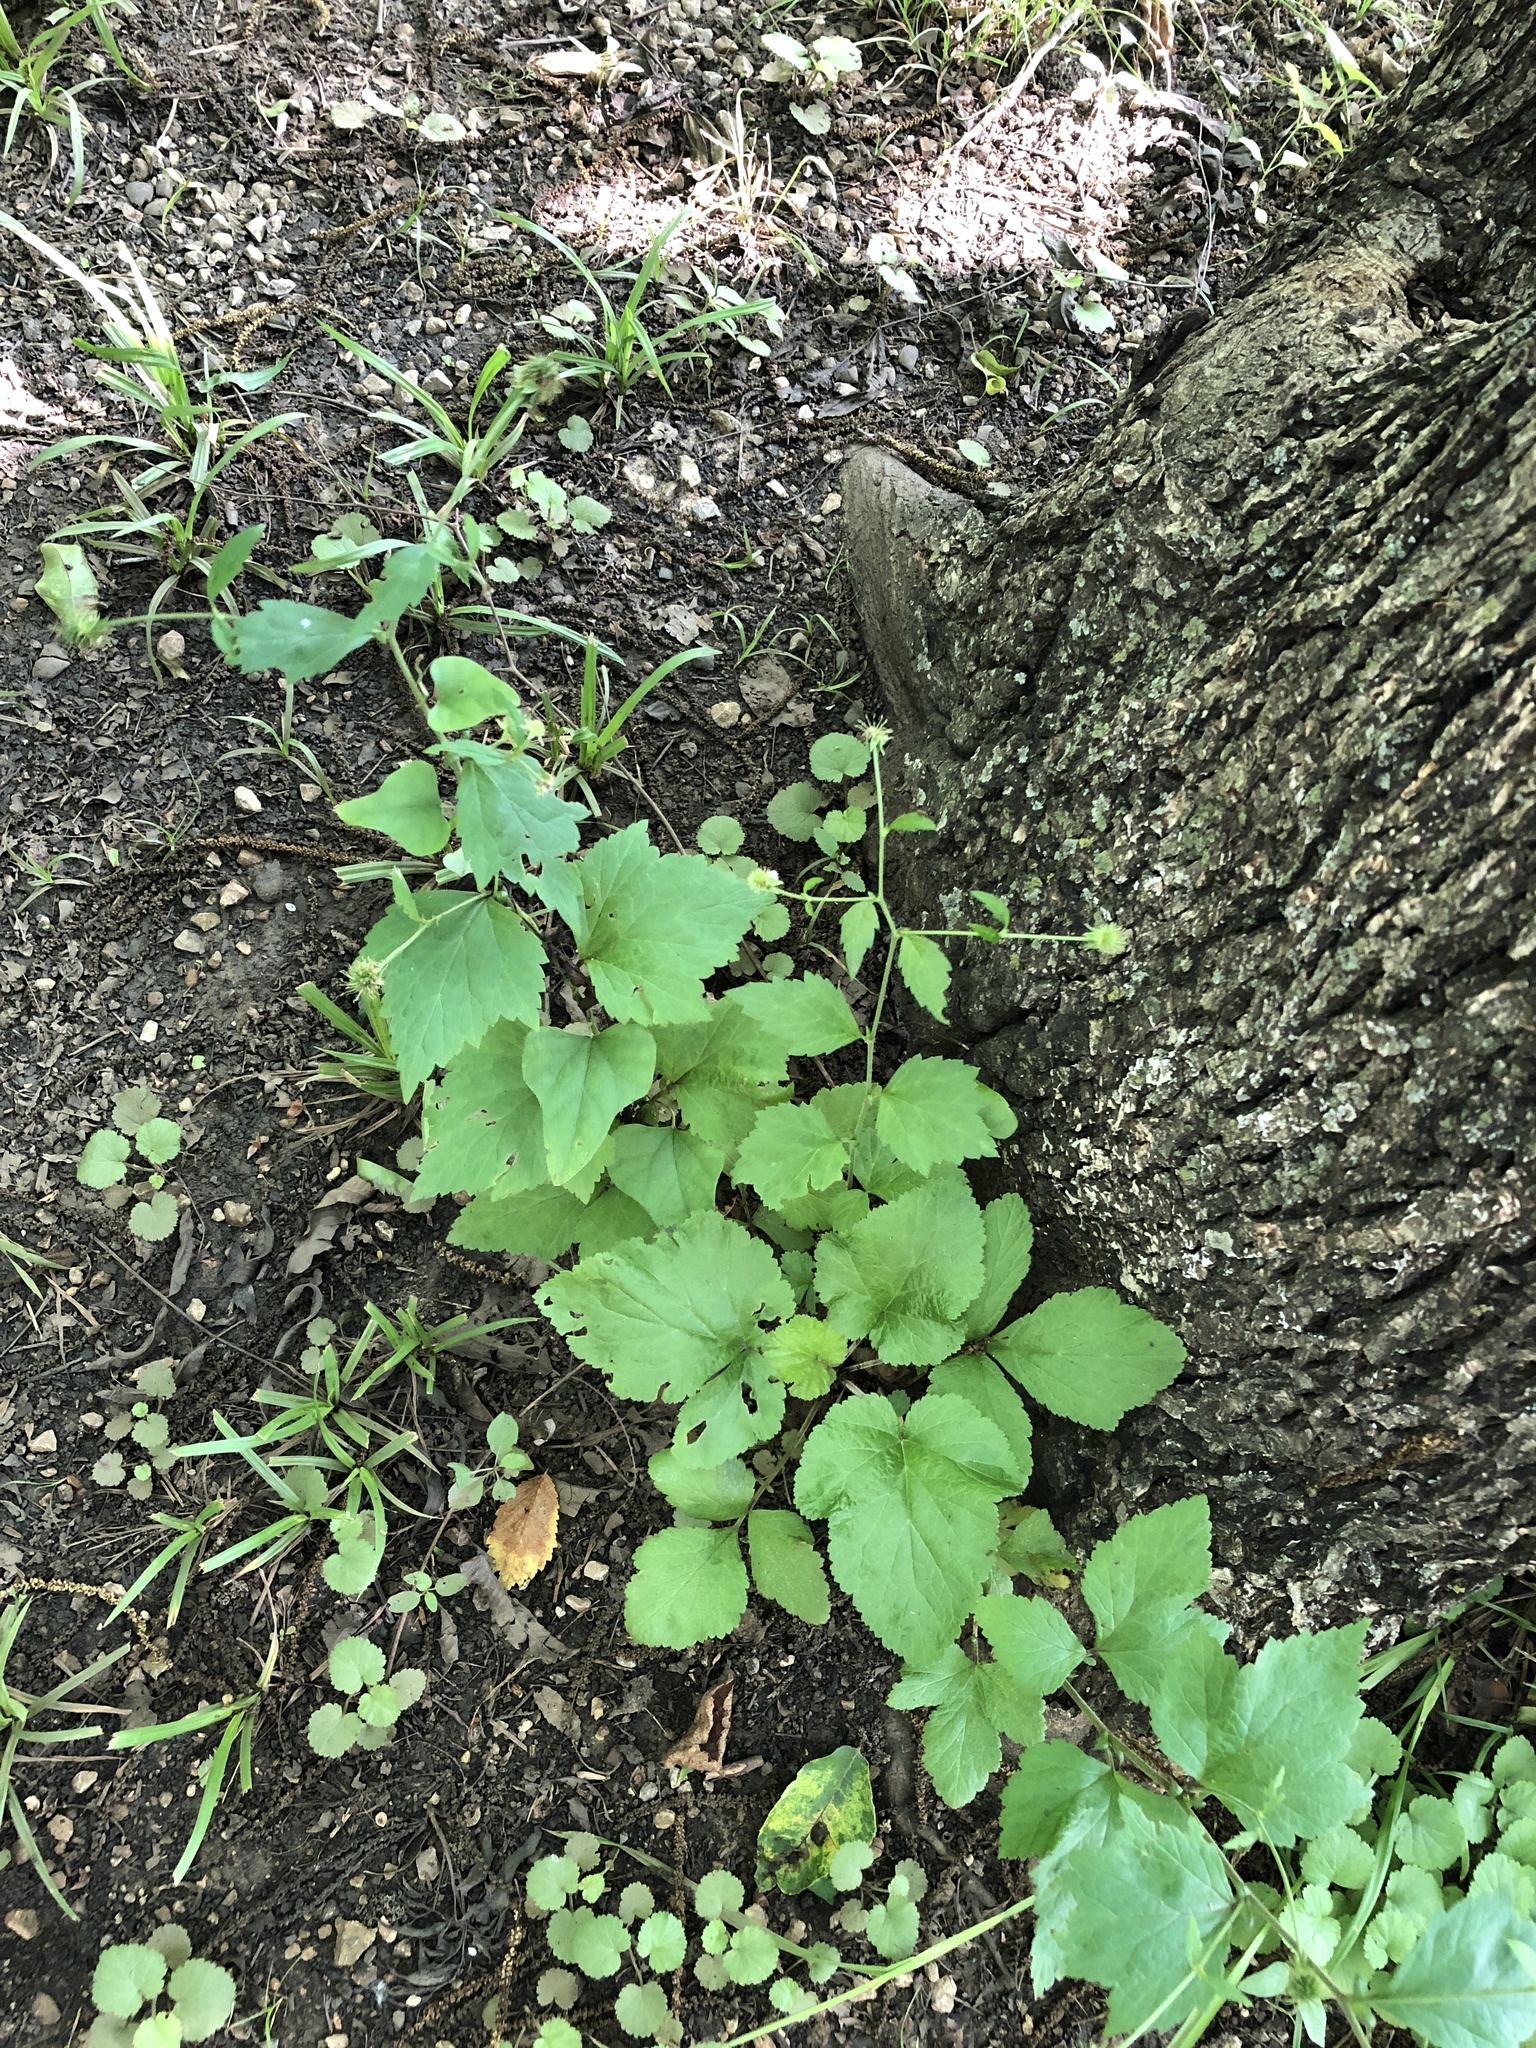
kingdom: Plantae
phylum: Tracheophyta
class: Magnoliopsida
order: Rosales
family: Rosaceae
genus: Geum
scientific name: Geum canadense
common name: White avens
